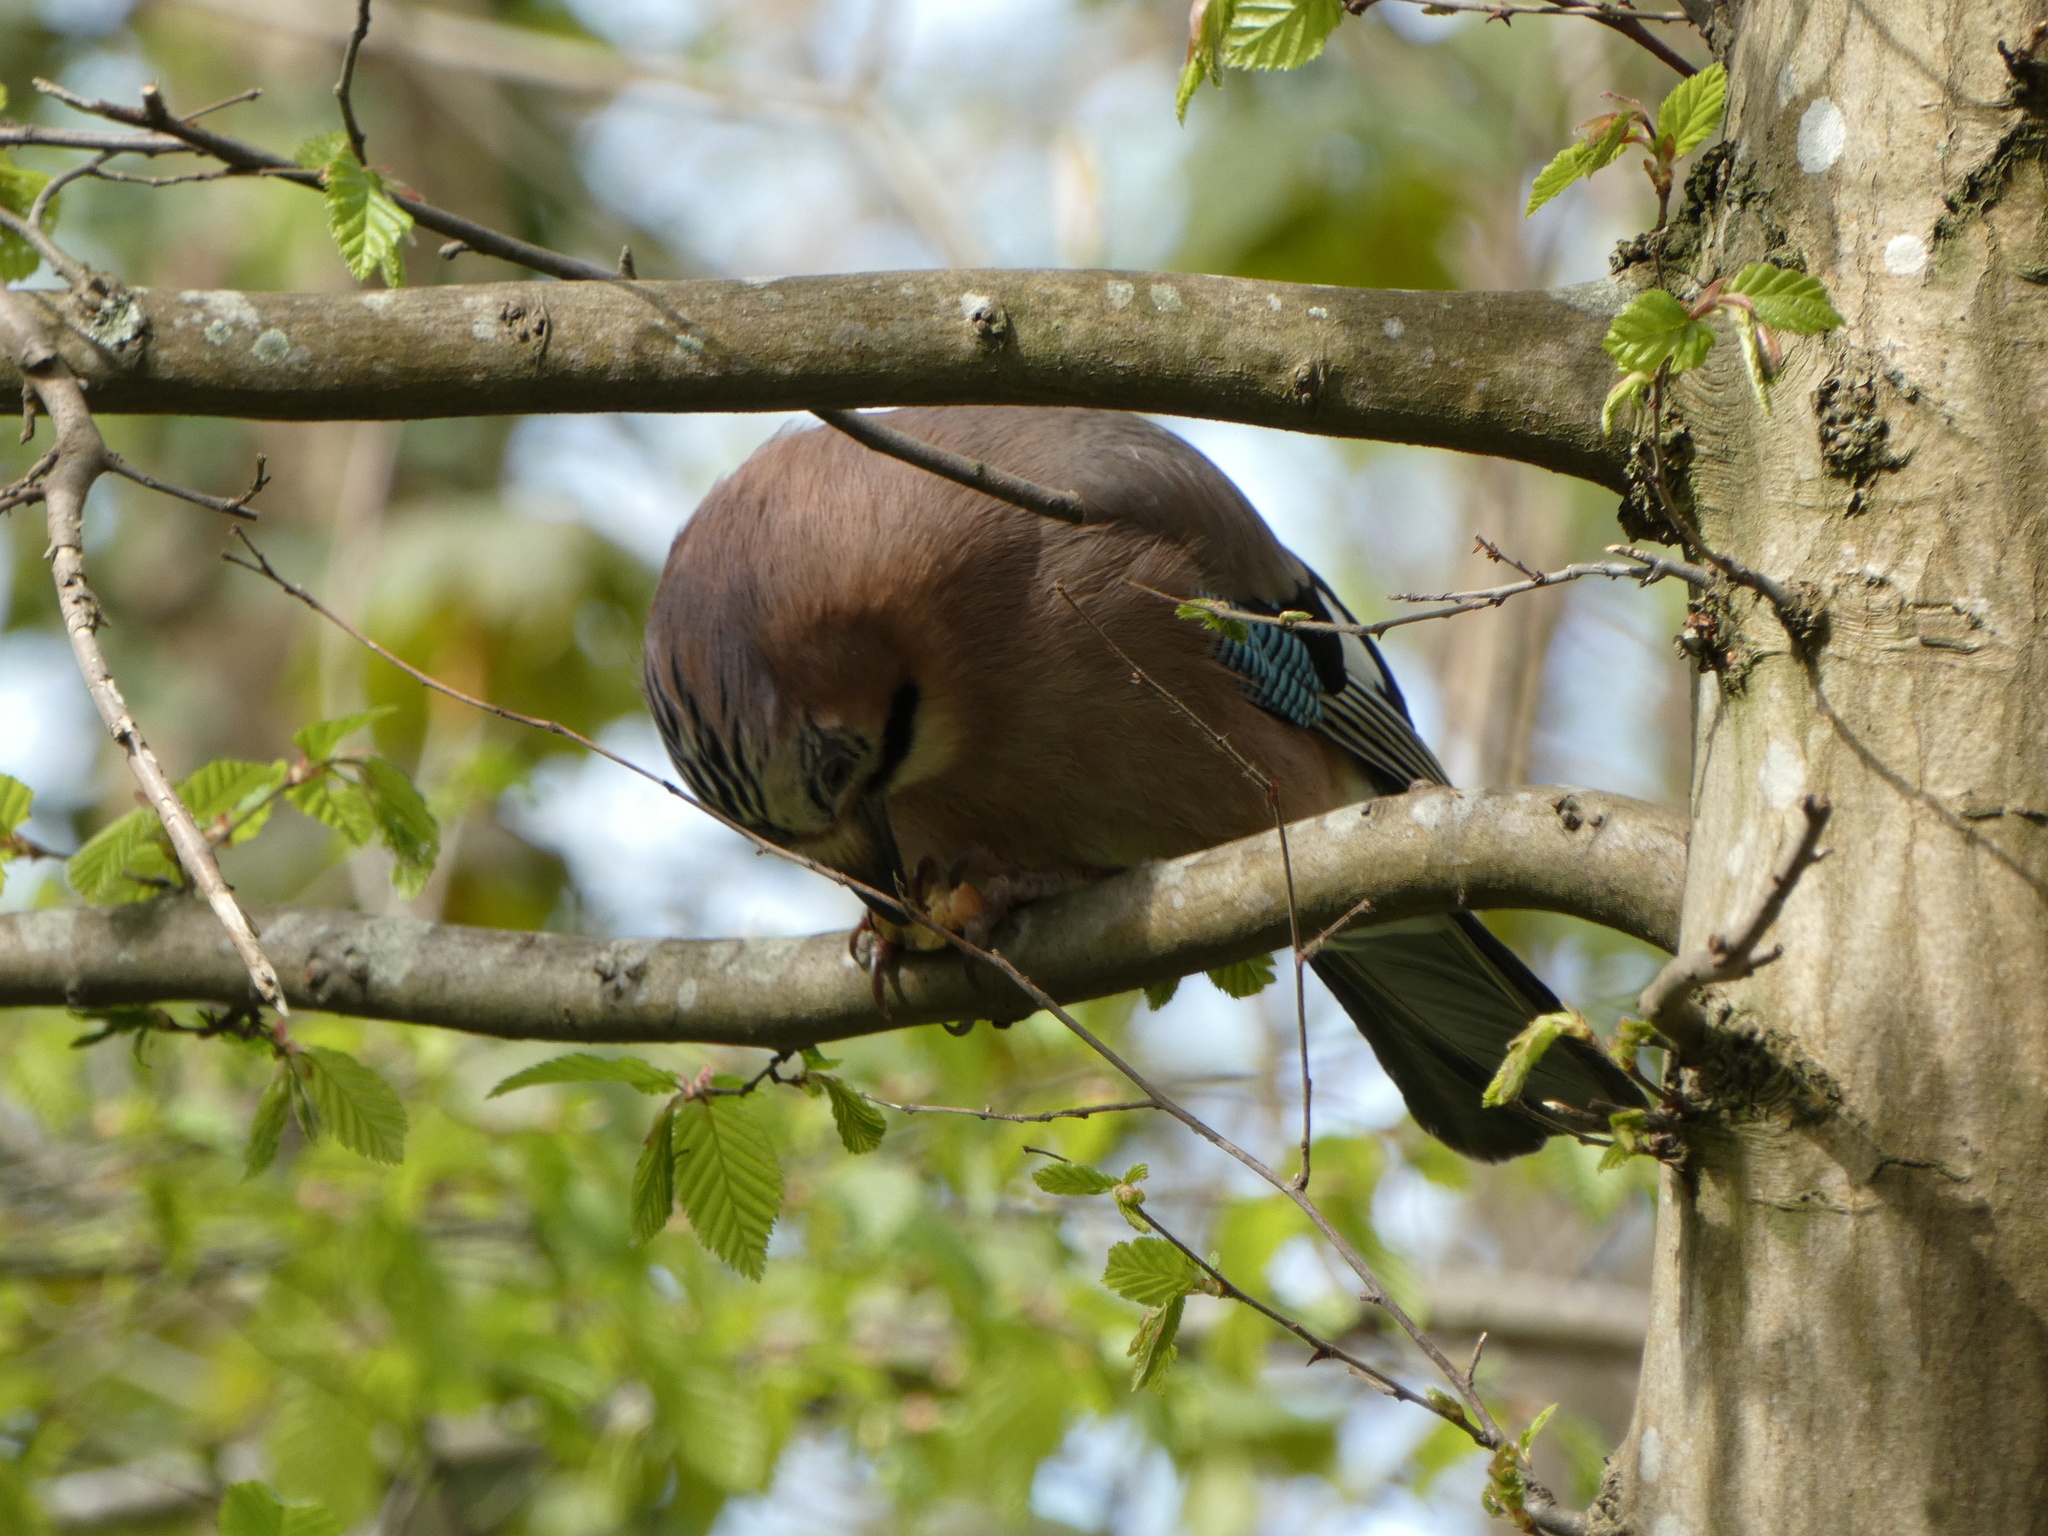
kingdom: Animalia
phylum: Chordata
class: Aves
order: Passeriformes
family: Corvidae
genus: Garrulus
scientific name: Garrulus glandarius
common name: Eurasian jay
